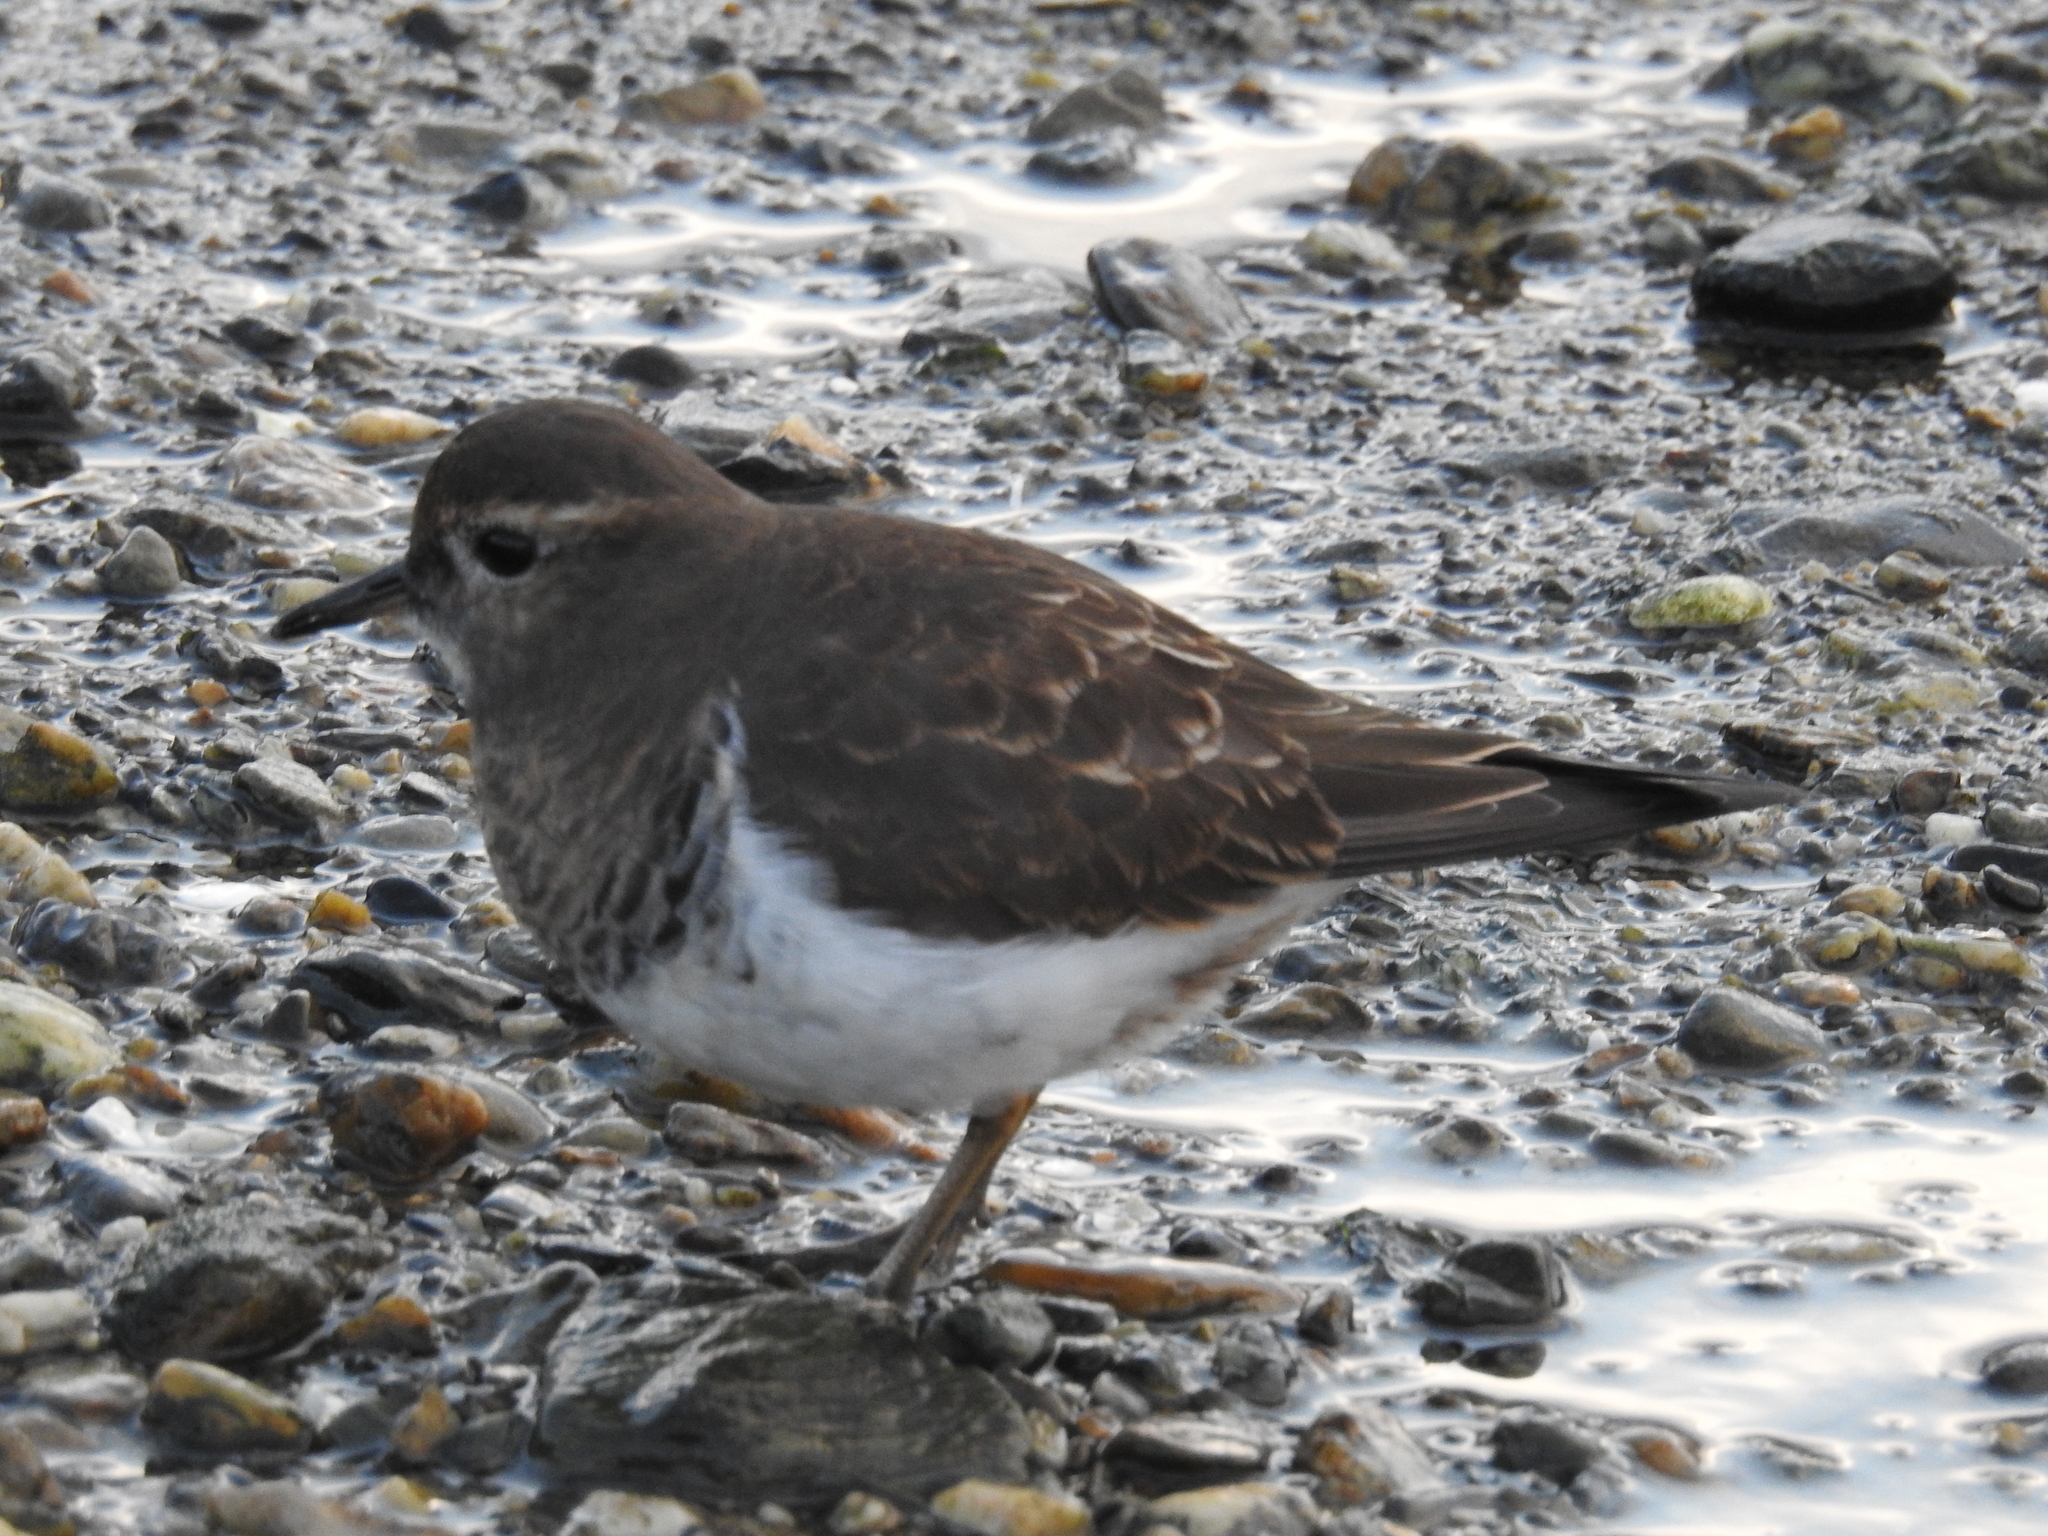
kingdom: Animalia
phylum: Chordata
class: Aves
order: Charadriiformes
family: Charadriidae
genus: Charadrius
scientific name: Charadrius modestus
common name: Rufous-chested plover
